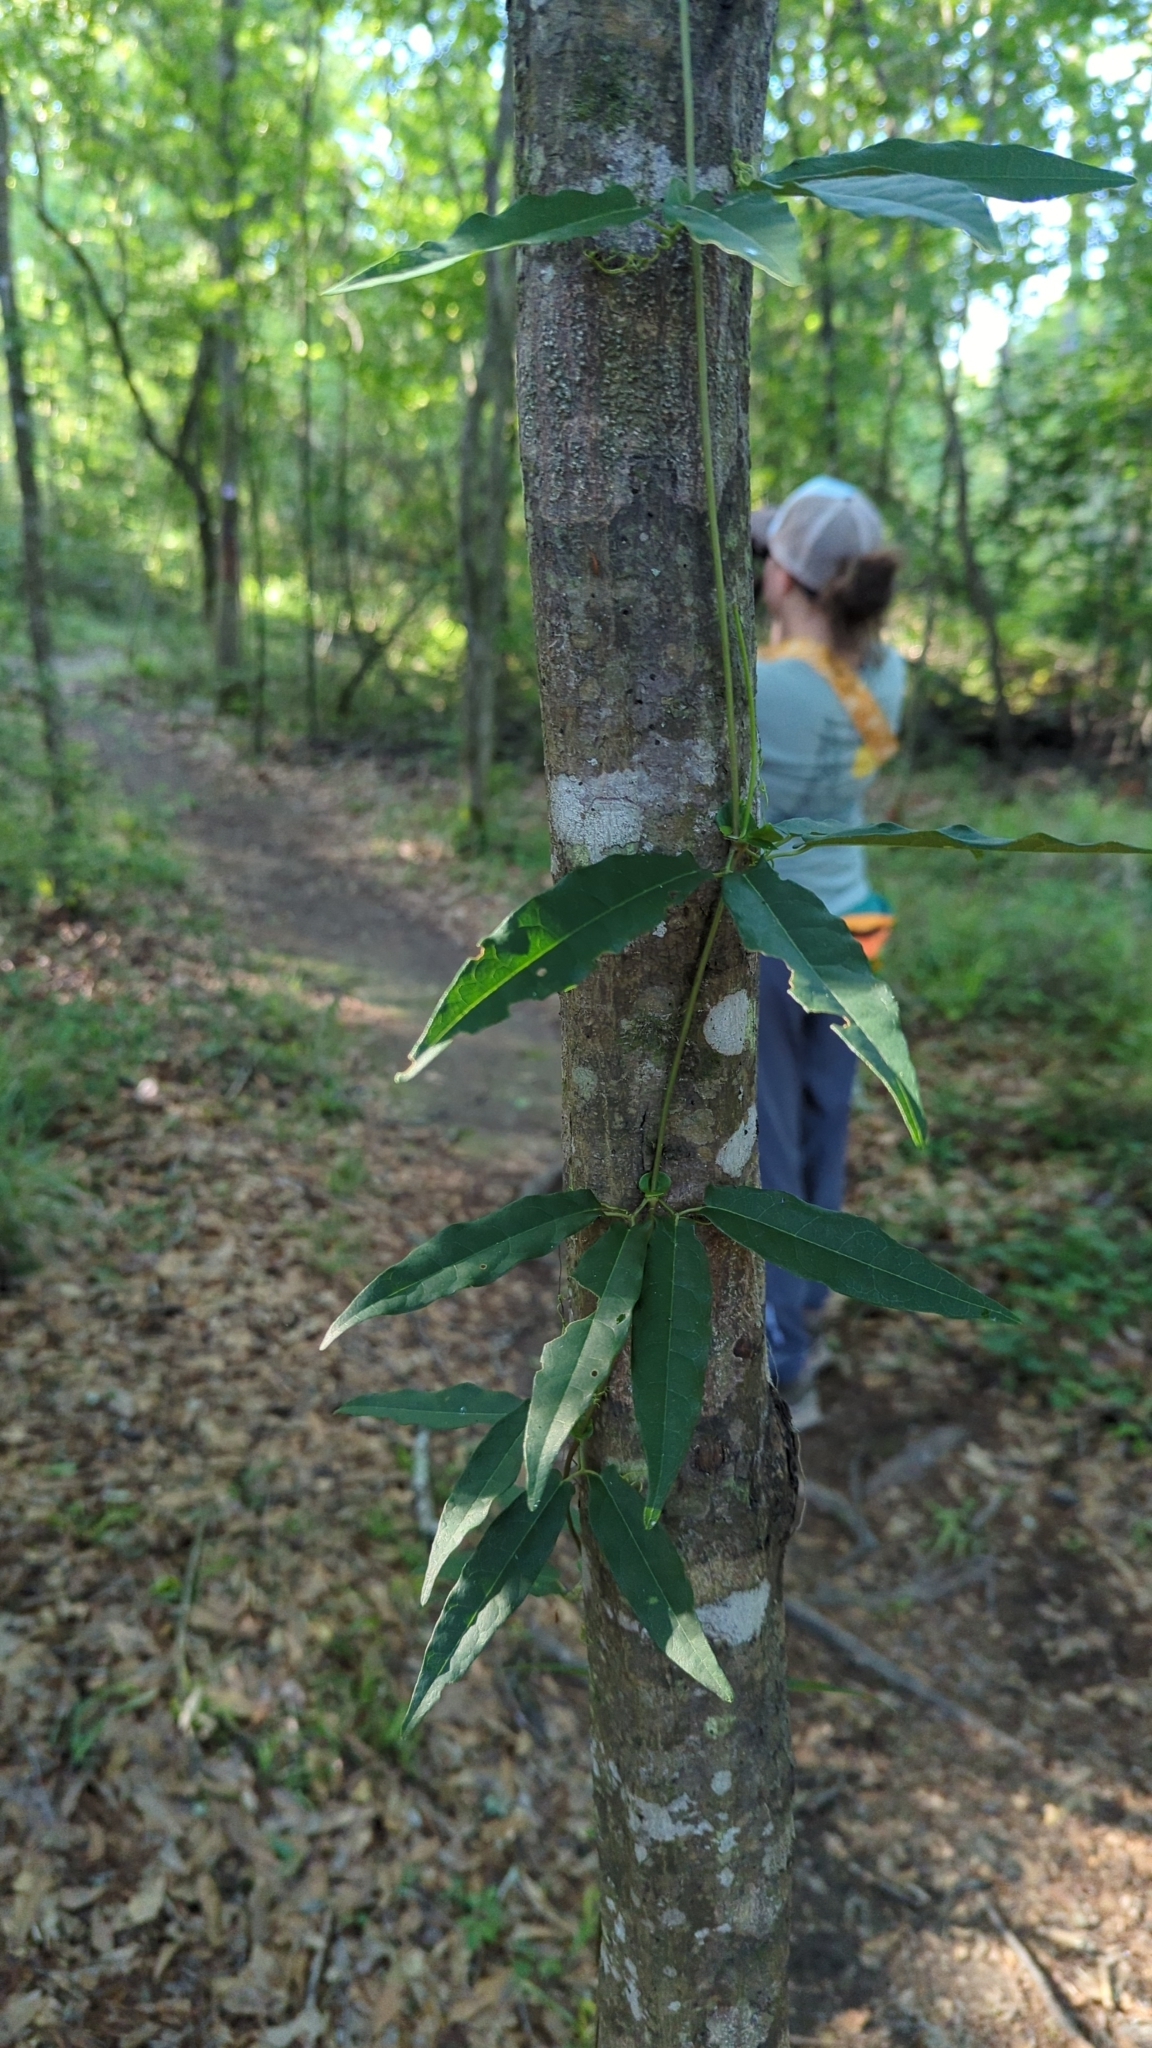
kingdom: Plantae
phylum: Tracheophyta
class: Magnoliopsida
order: Lamiales
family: Bignoniaceae
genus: Bignonia
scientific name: Bignonia capreolata
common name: Crossvine
